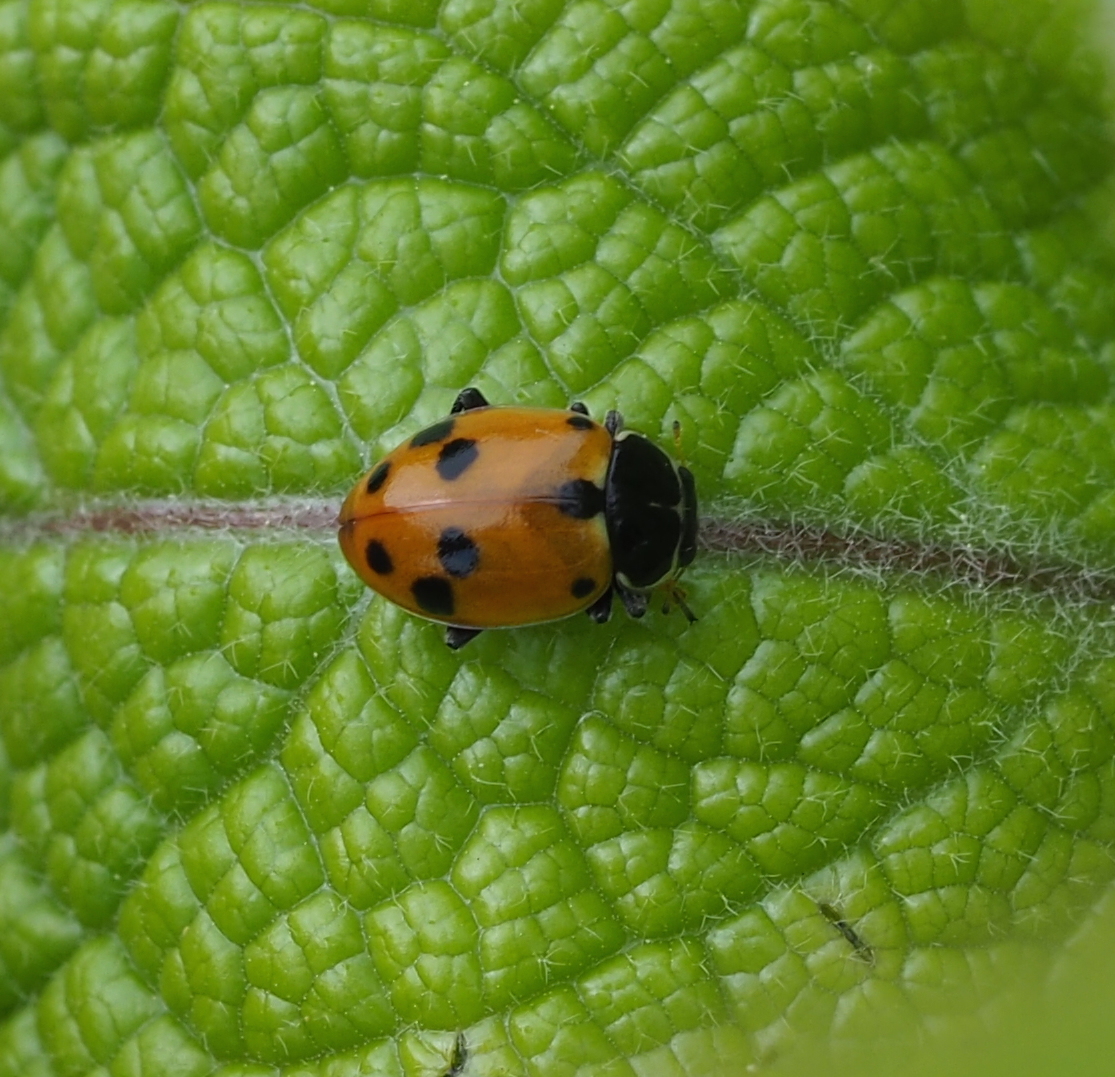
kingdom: Animalia
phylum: Arthropoda
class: Insecta
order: Coleoptera
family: Coccinellidae
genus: Hippodamia
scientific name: Hippodamia variegata
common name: Ladybird beetle
